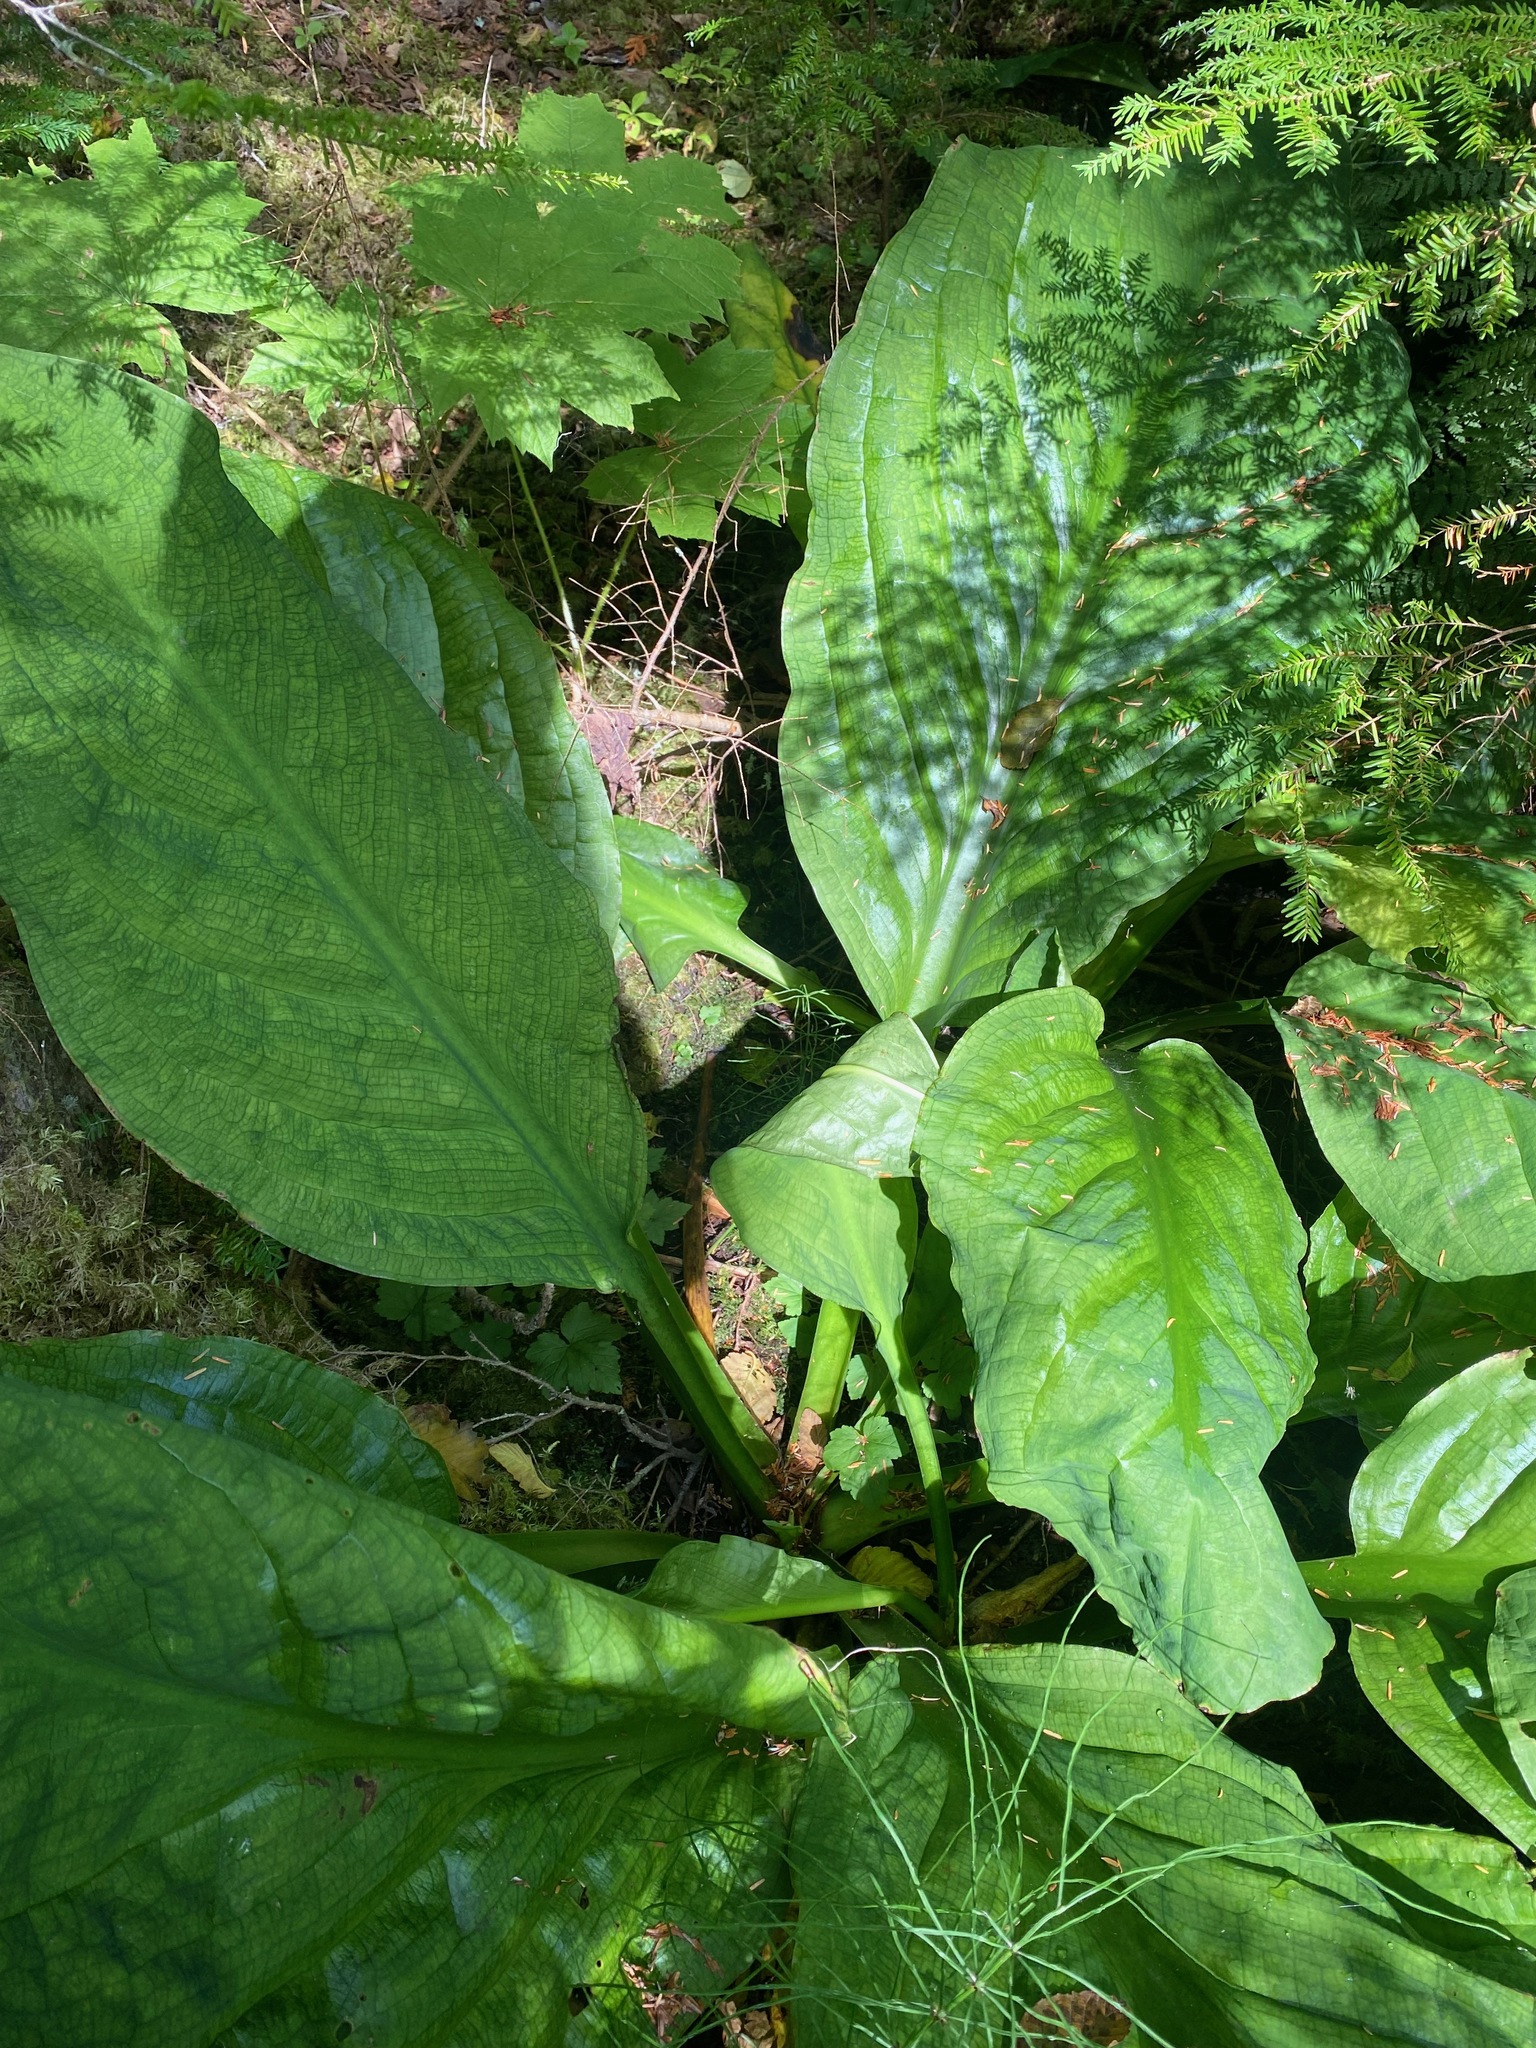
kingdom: Plantae
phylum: Tracheophyta
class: Liliopsida
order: Alismatales
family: Araceae
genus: Lysichiton
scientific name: Lysichiton americanus
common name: American skunk cabbage
